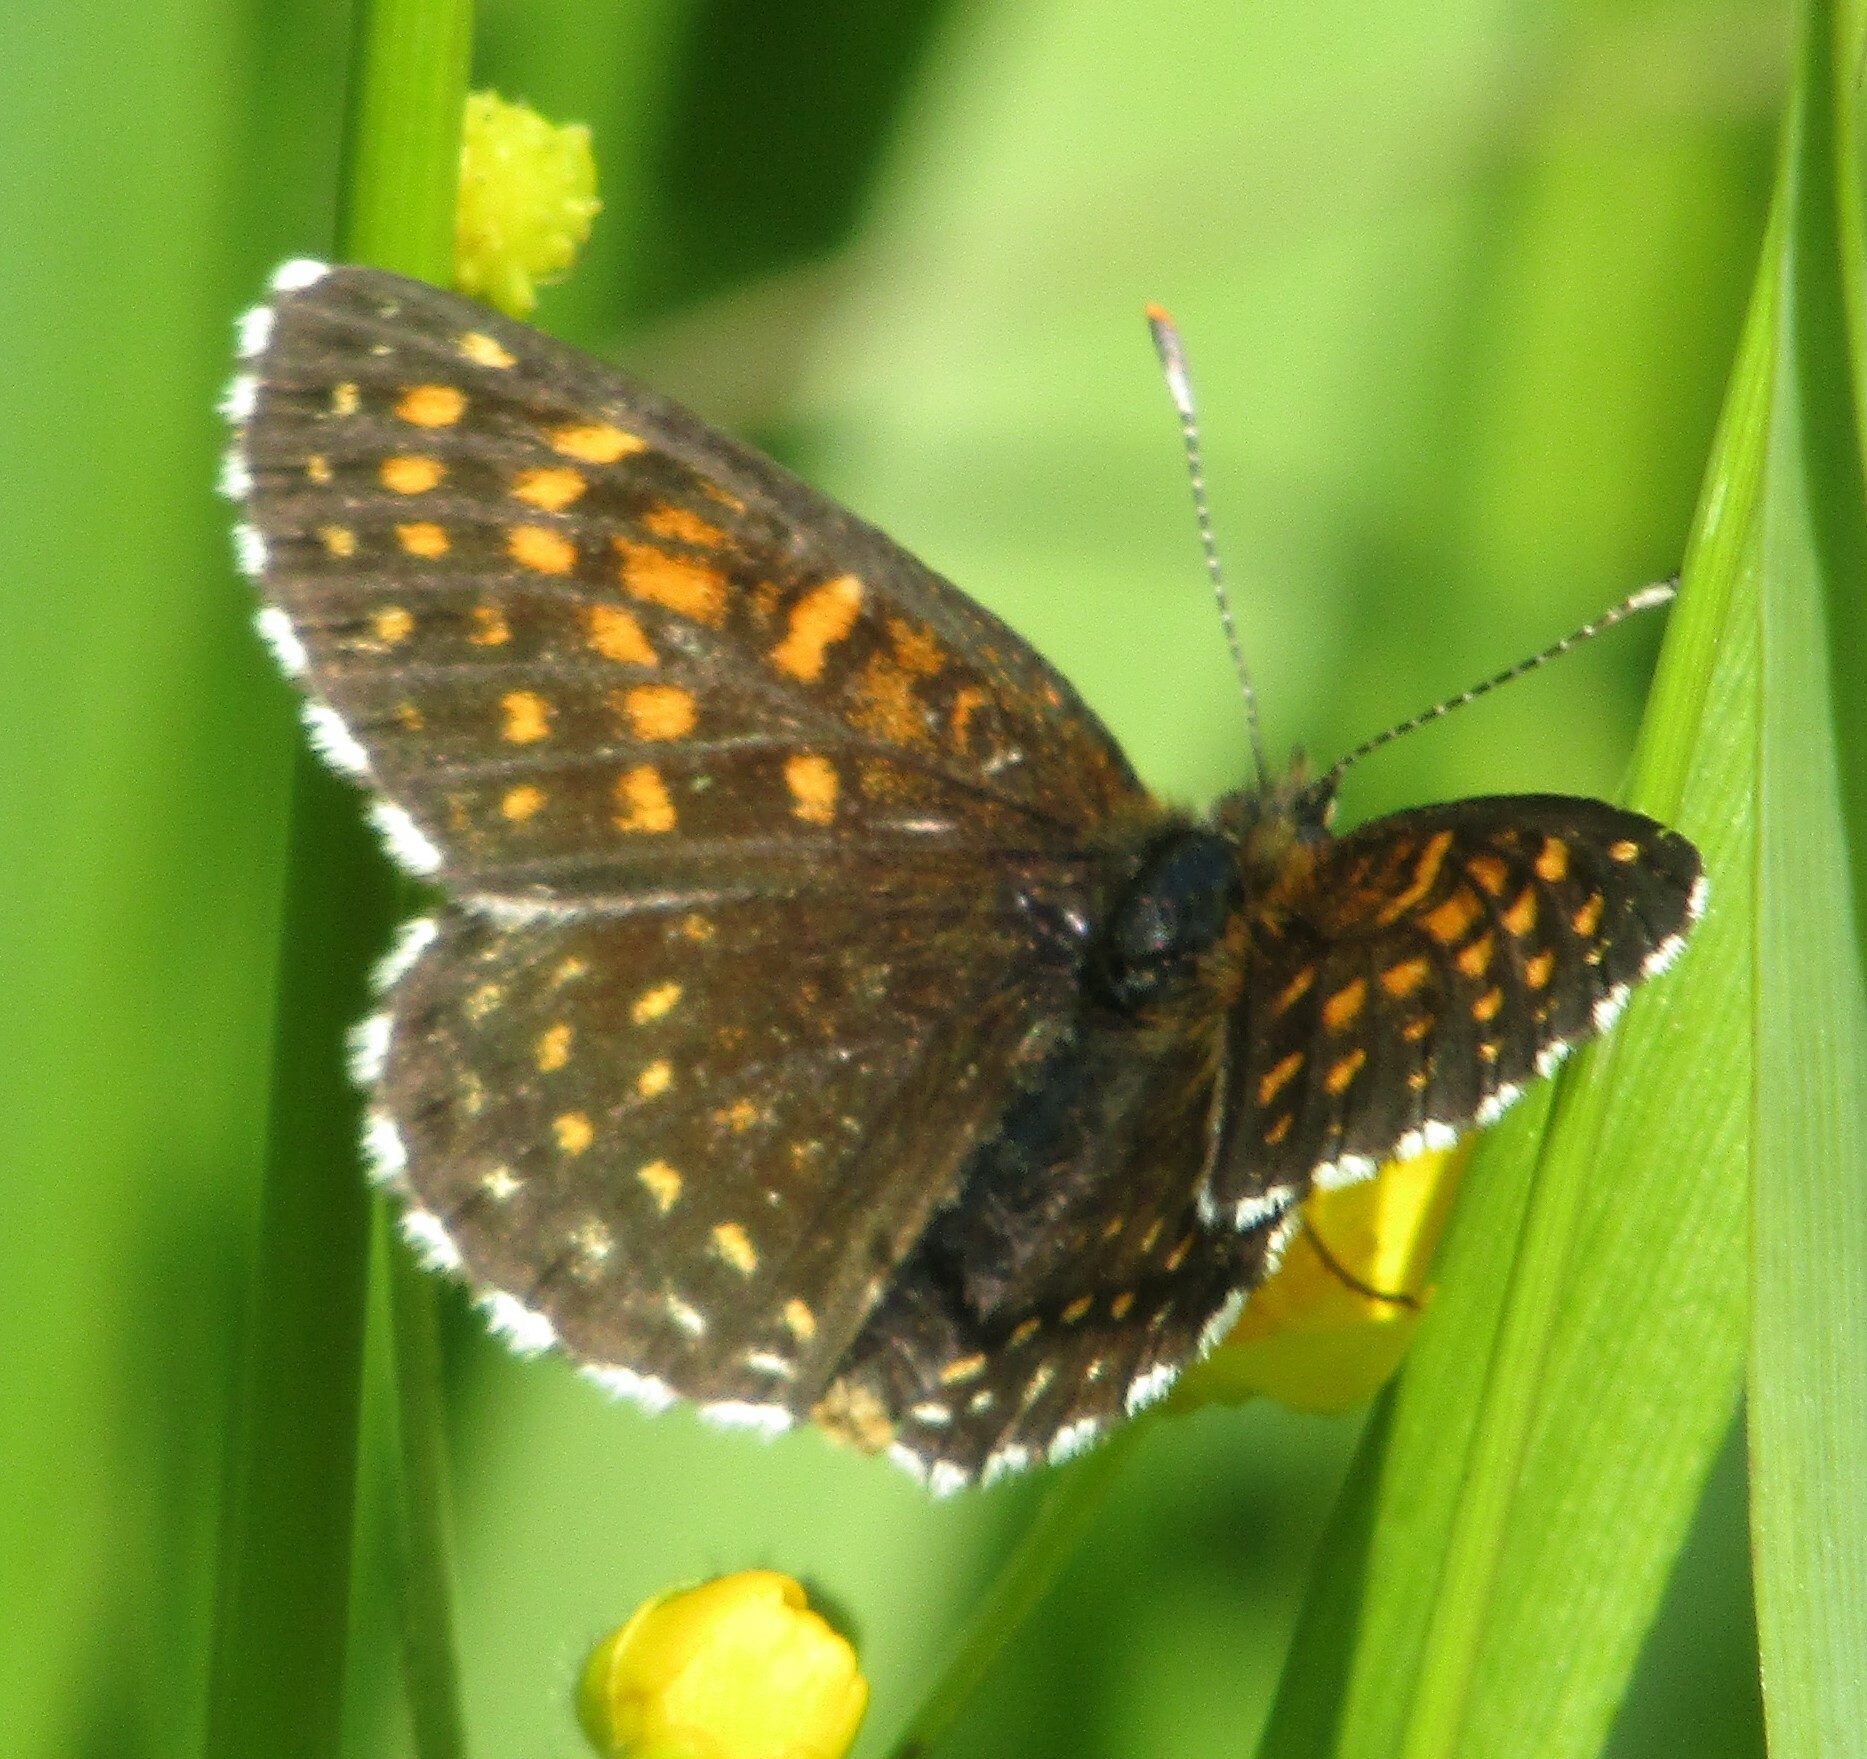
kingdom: Animalia
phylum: Arthropoda
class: Insecta
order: Lepidoptera
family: Nymphalidae
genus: Melitaea
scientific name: Melitaea diamina
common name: False heath fritillary
